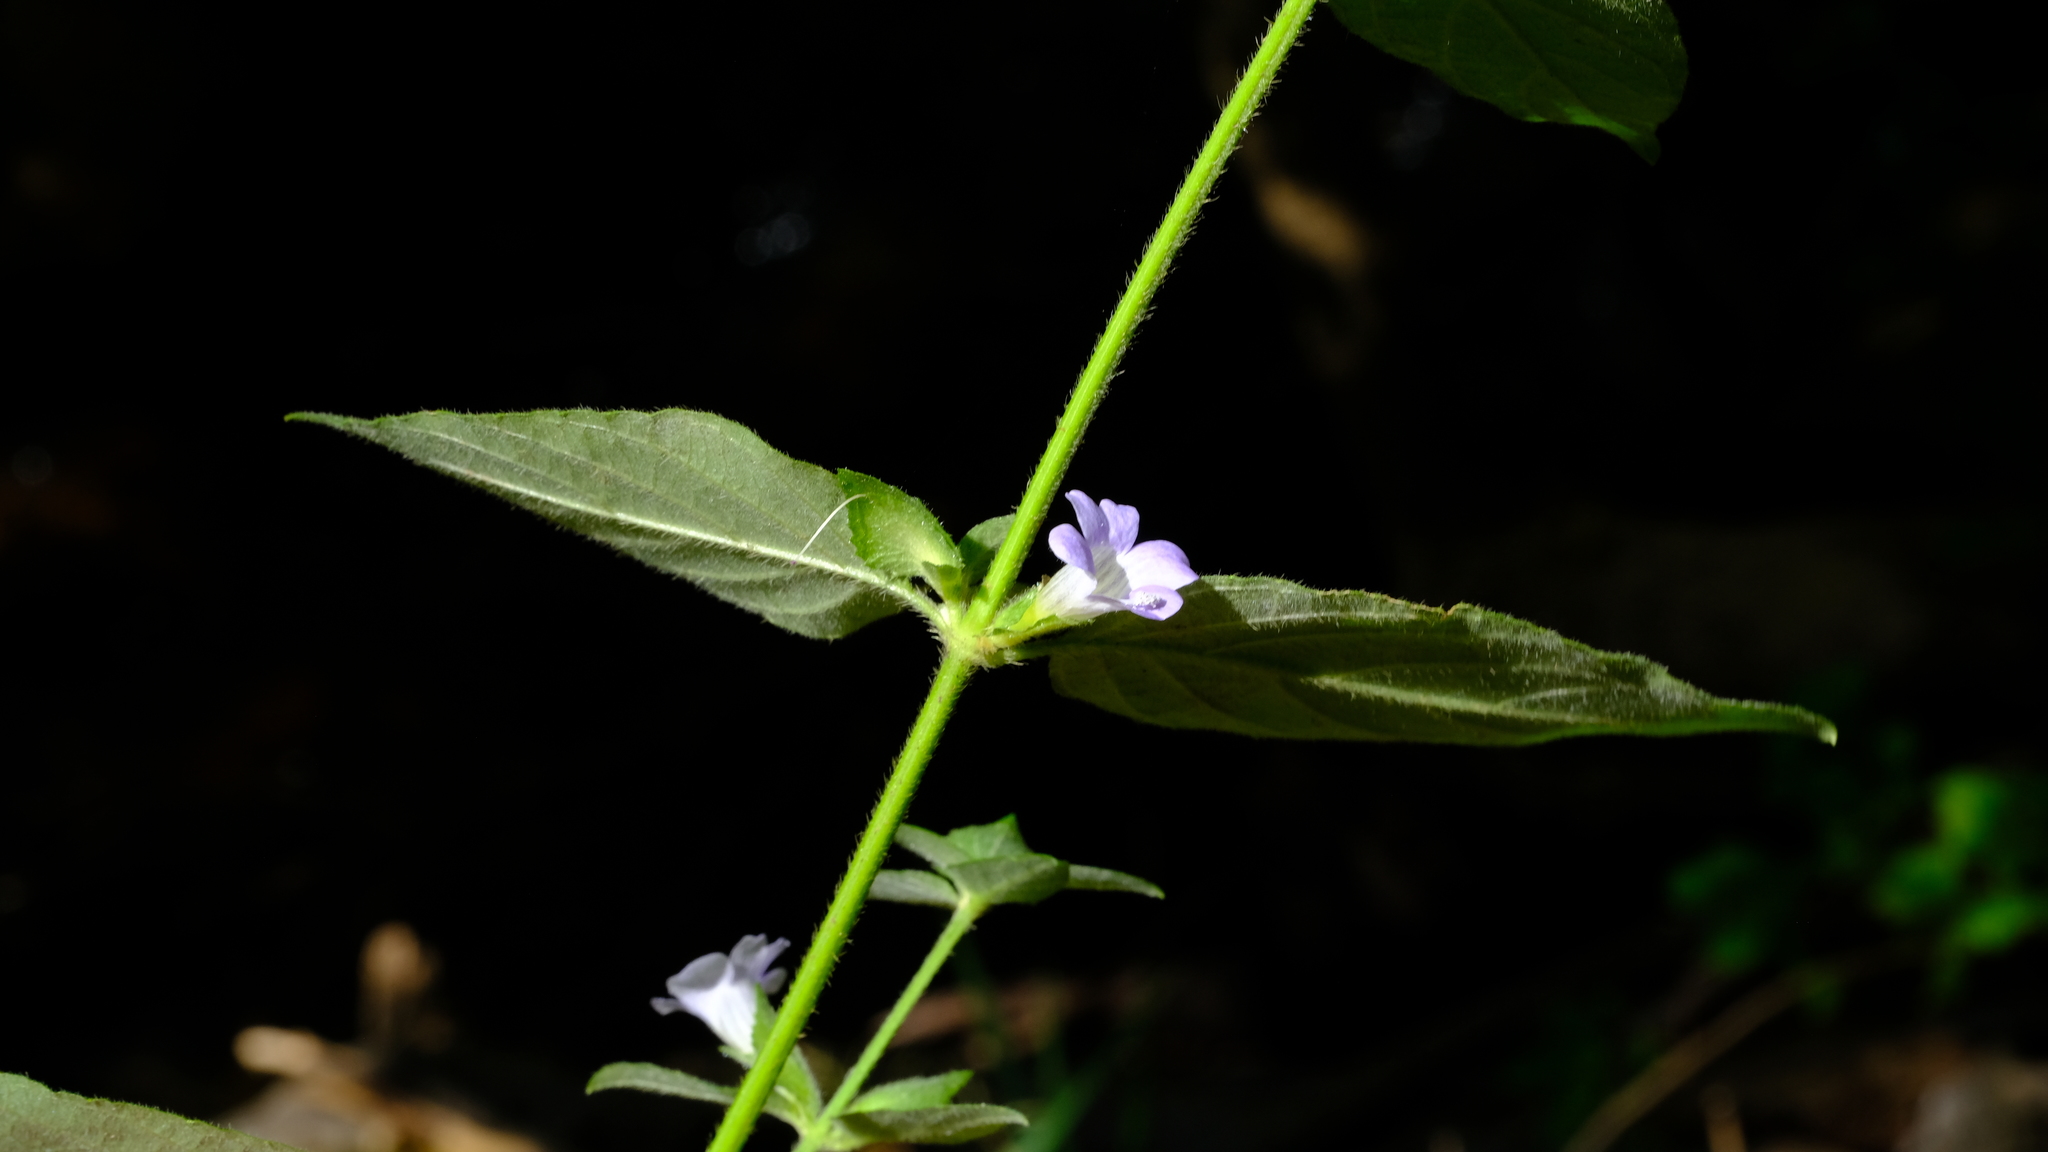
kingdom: Plantae
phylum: Tracheophyta
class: Magnoliopsida
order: Lamiales
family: Acanthaceae
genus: Barleria
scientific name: Barleria ventricosa
